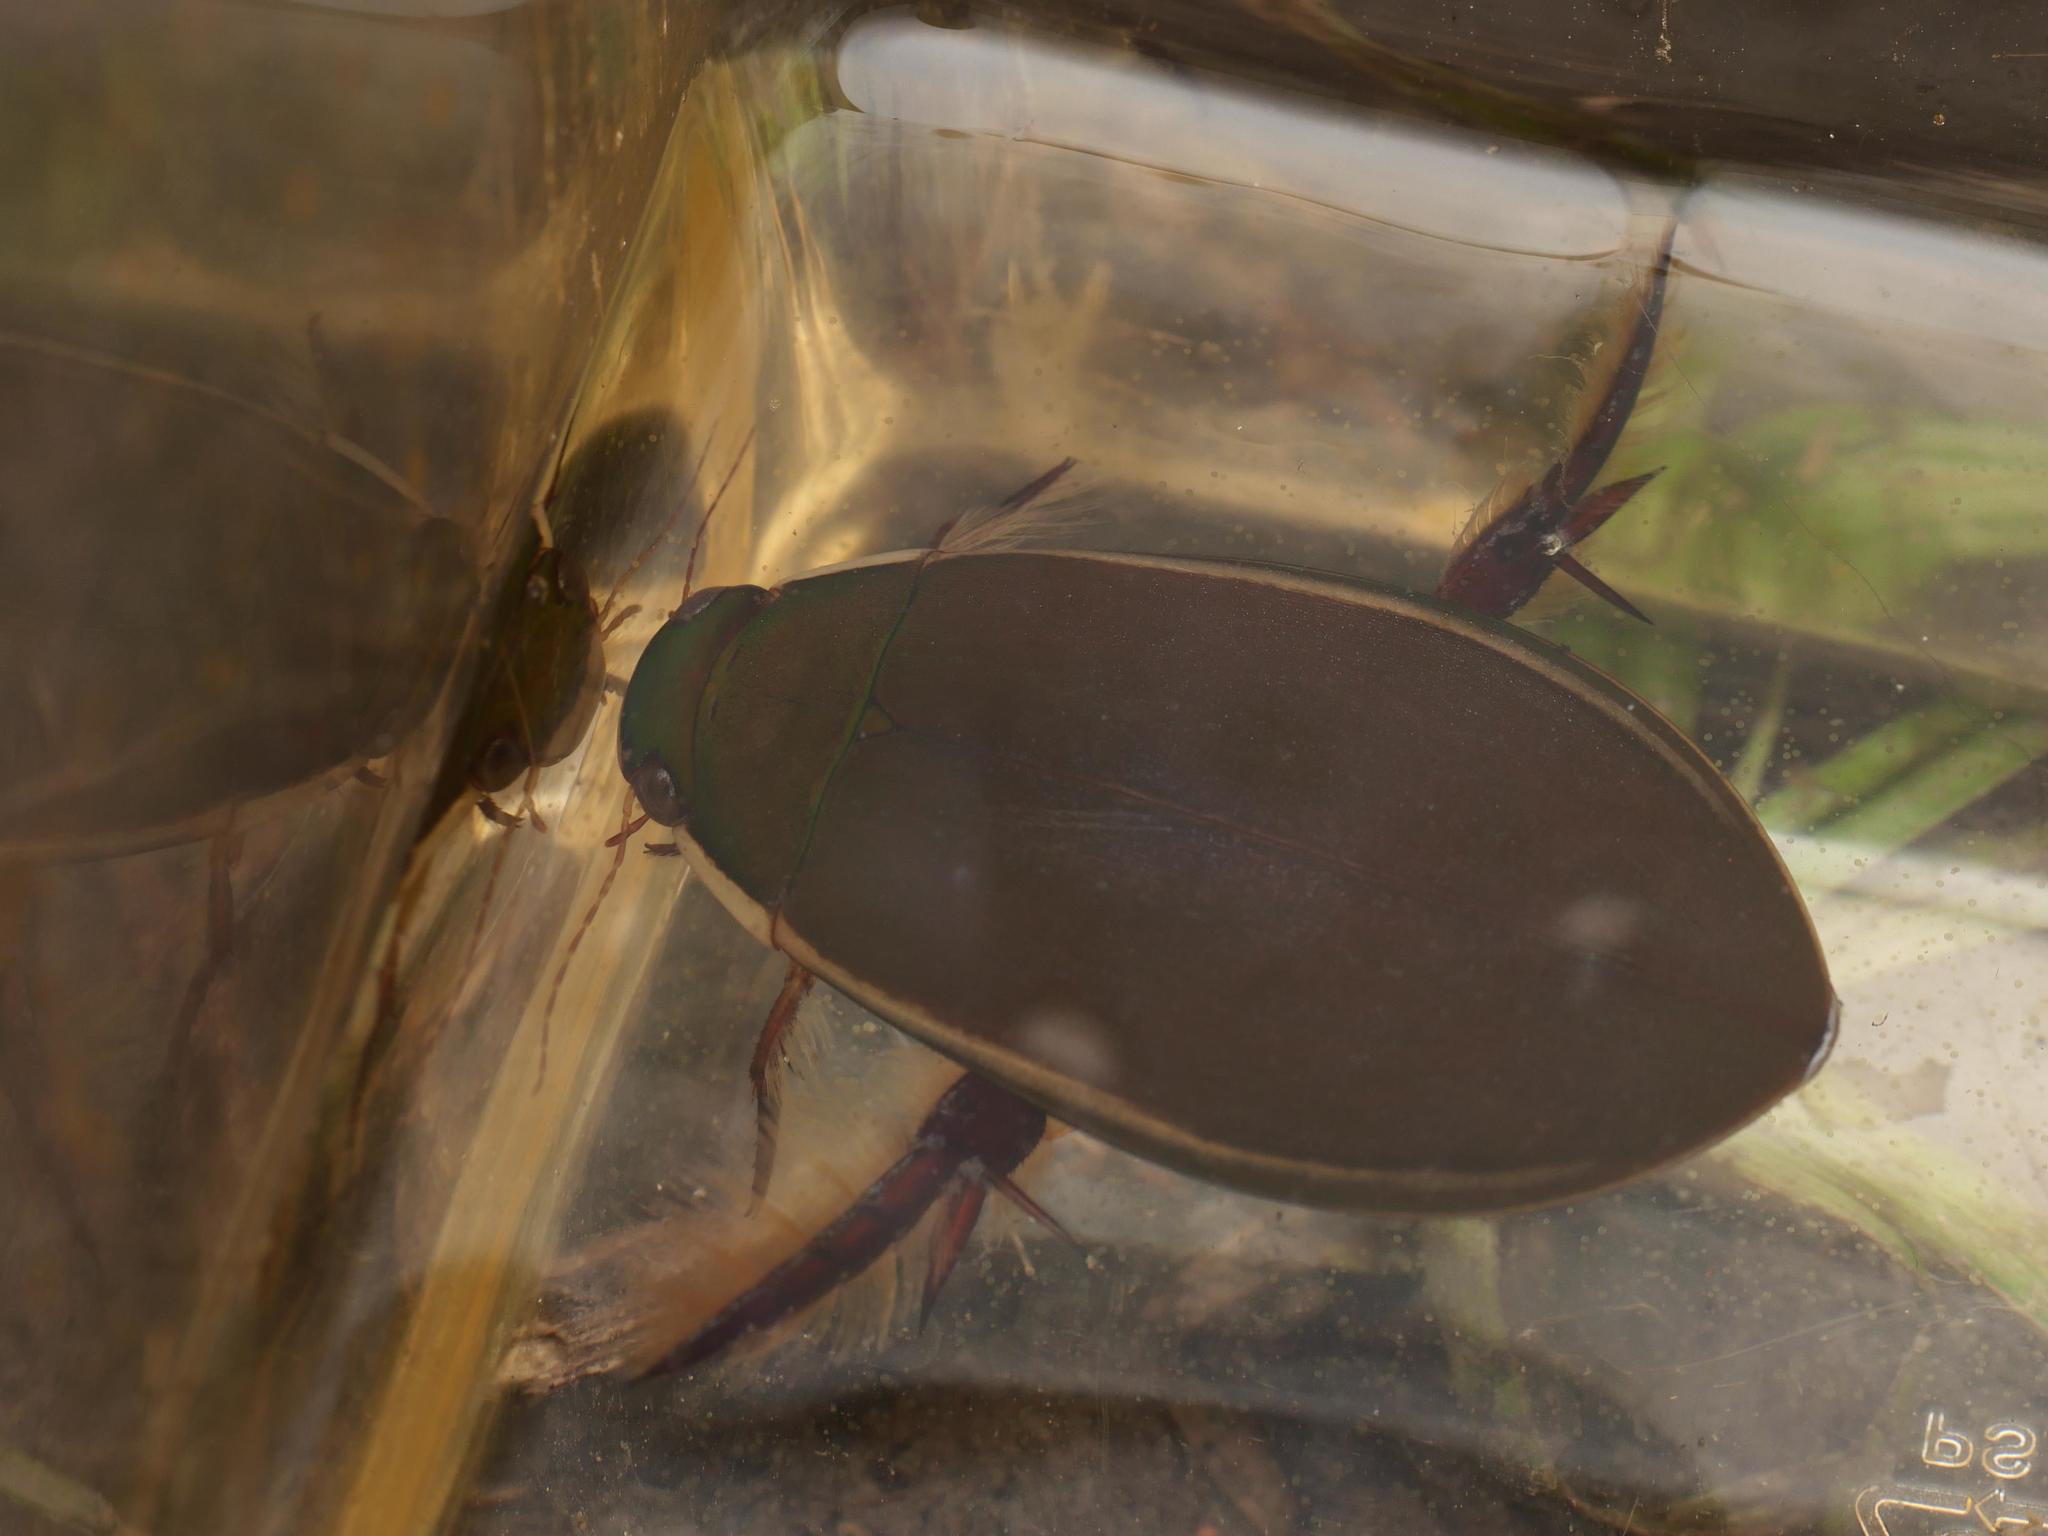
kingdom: Animalia
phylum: Arthropoda
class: Insecta
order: Coleoptera
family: Dytiscidae
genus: Cybister
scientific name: Cybister lateralimarginalis
